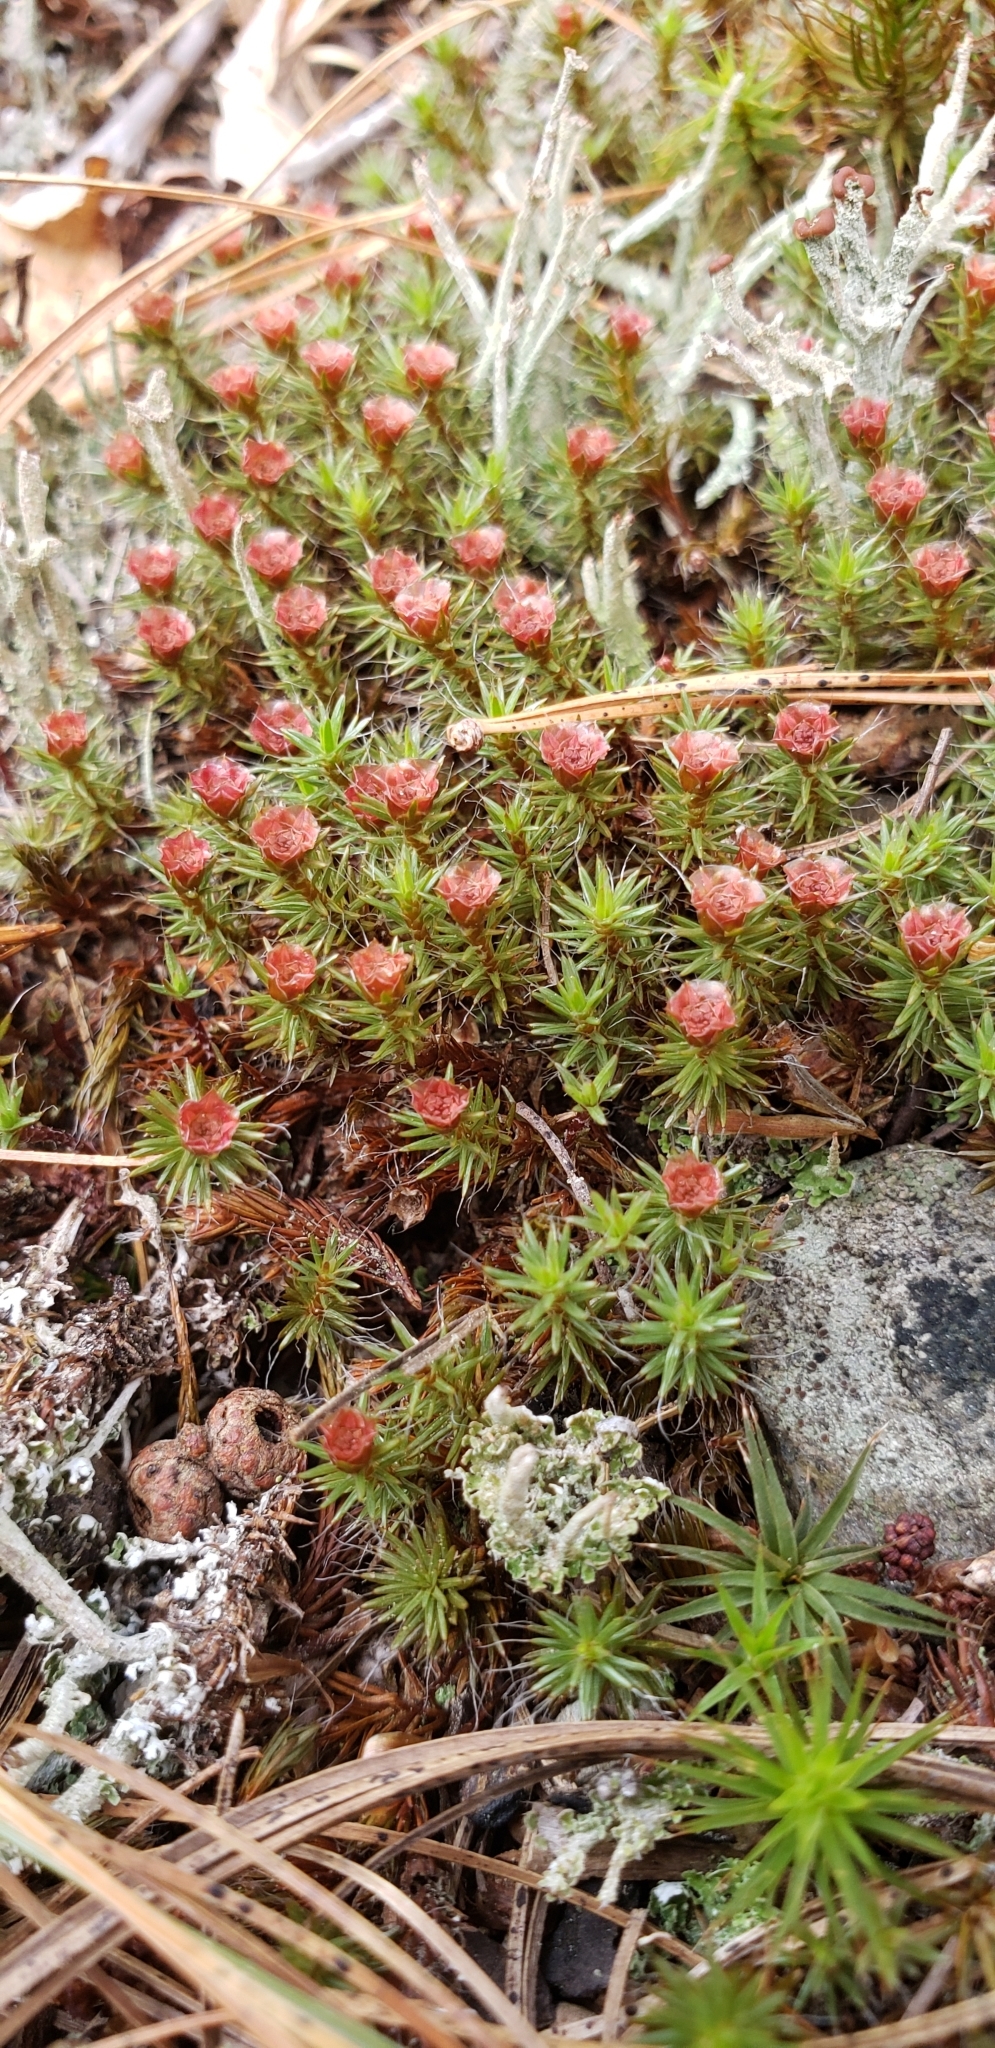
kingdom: Plantae
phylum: Bryophyta
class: Polytrichopsida
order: Polytrichales
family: Polytrichaceae
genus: Polytrichum
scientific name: Polytrichum piliferum
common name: Bristly haircap
